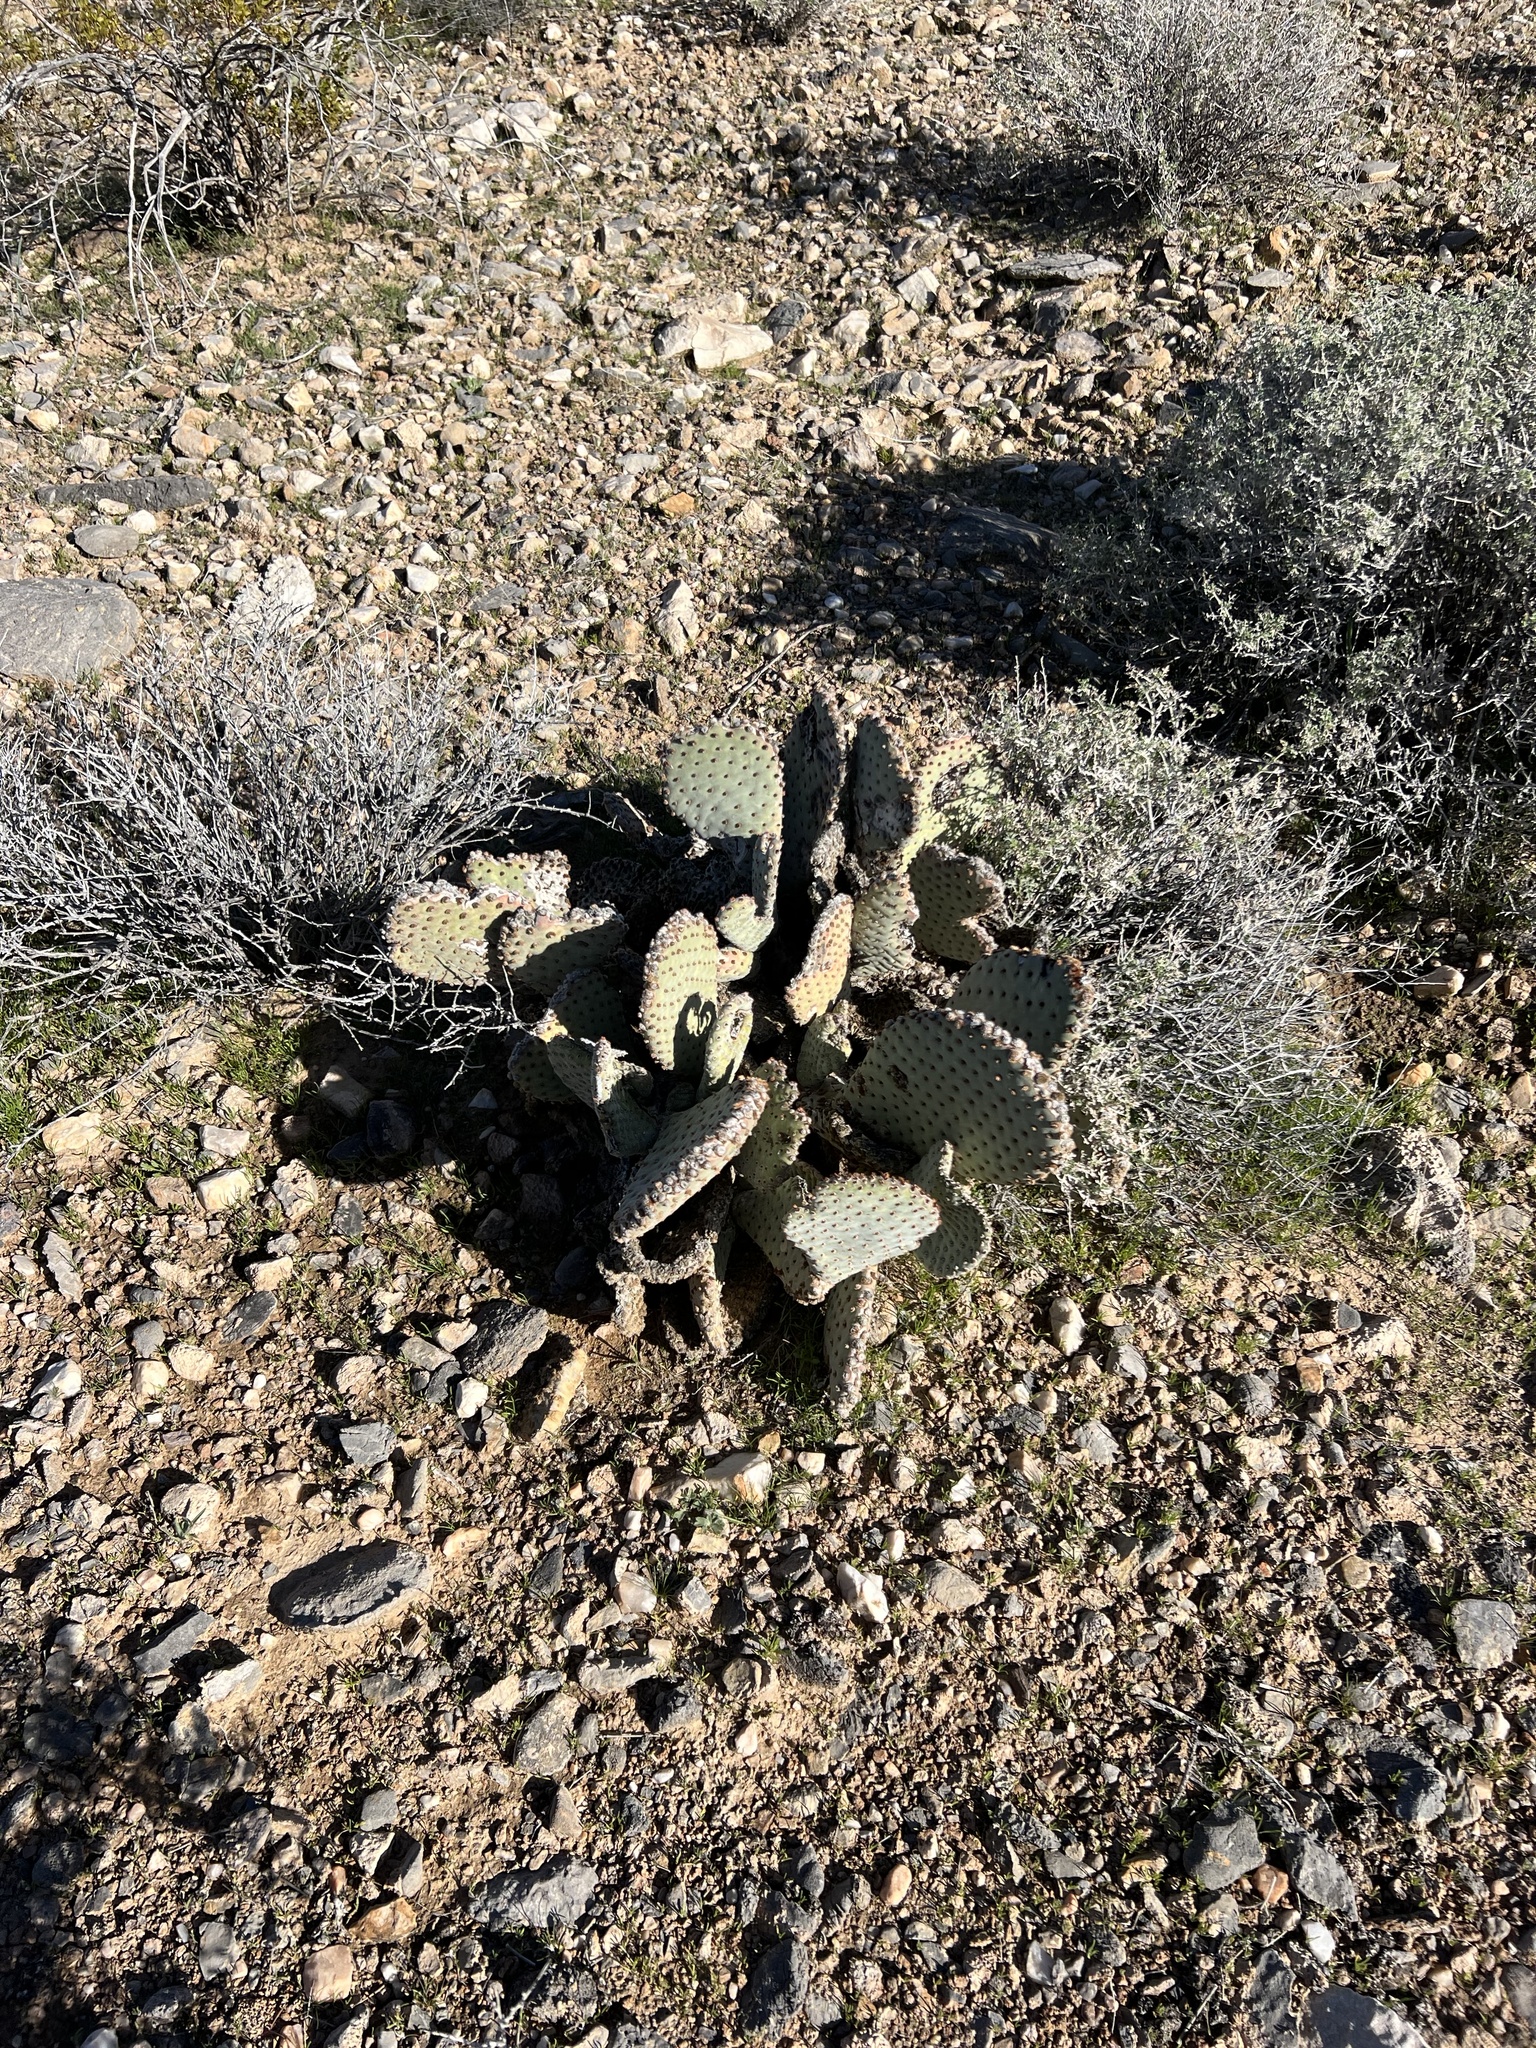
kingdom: Plantae
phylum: Tracheophyta
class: Magnoliopsida
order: Caryophyllales
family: Cactaceae
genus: Opuntia
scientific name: Opuntia basilaris
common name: Beavertail prickly-pear
